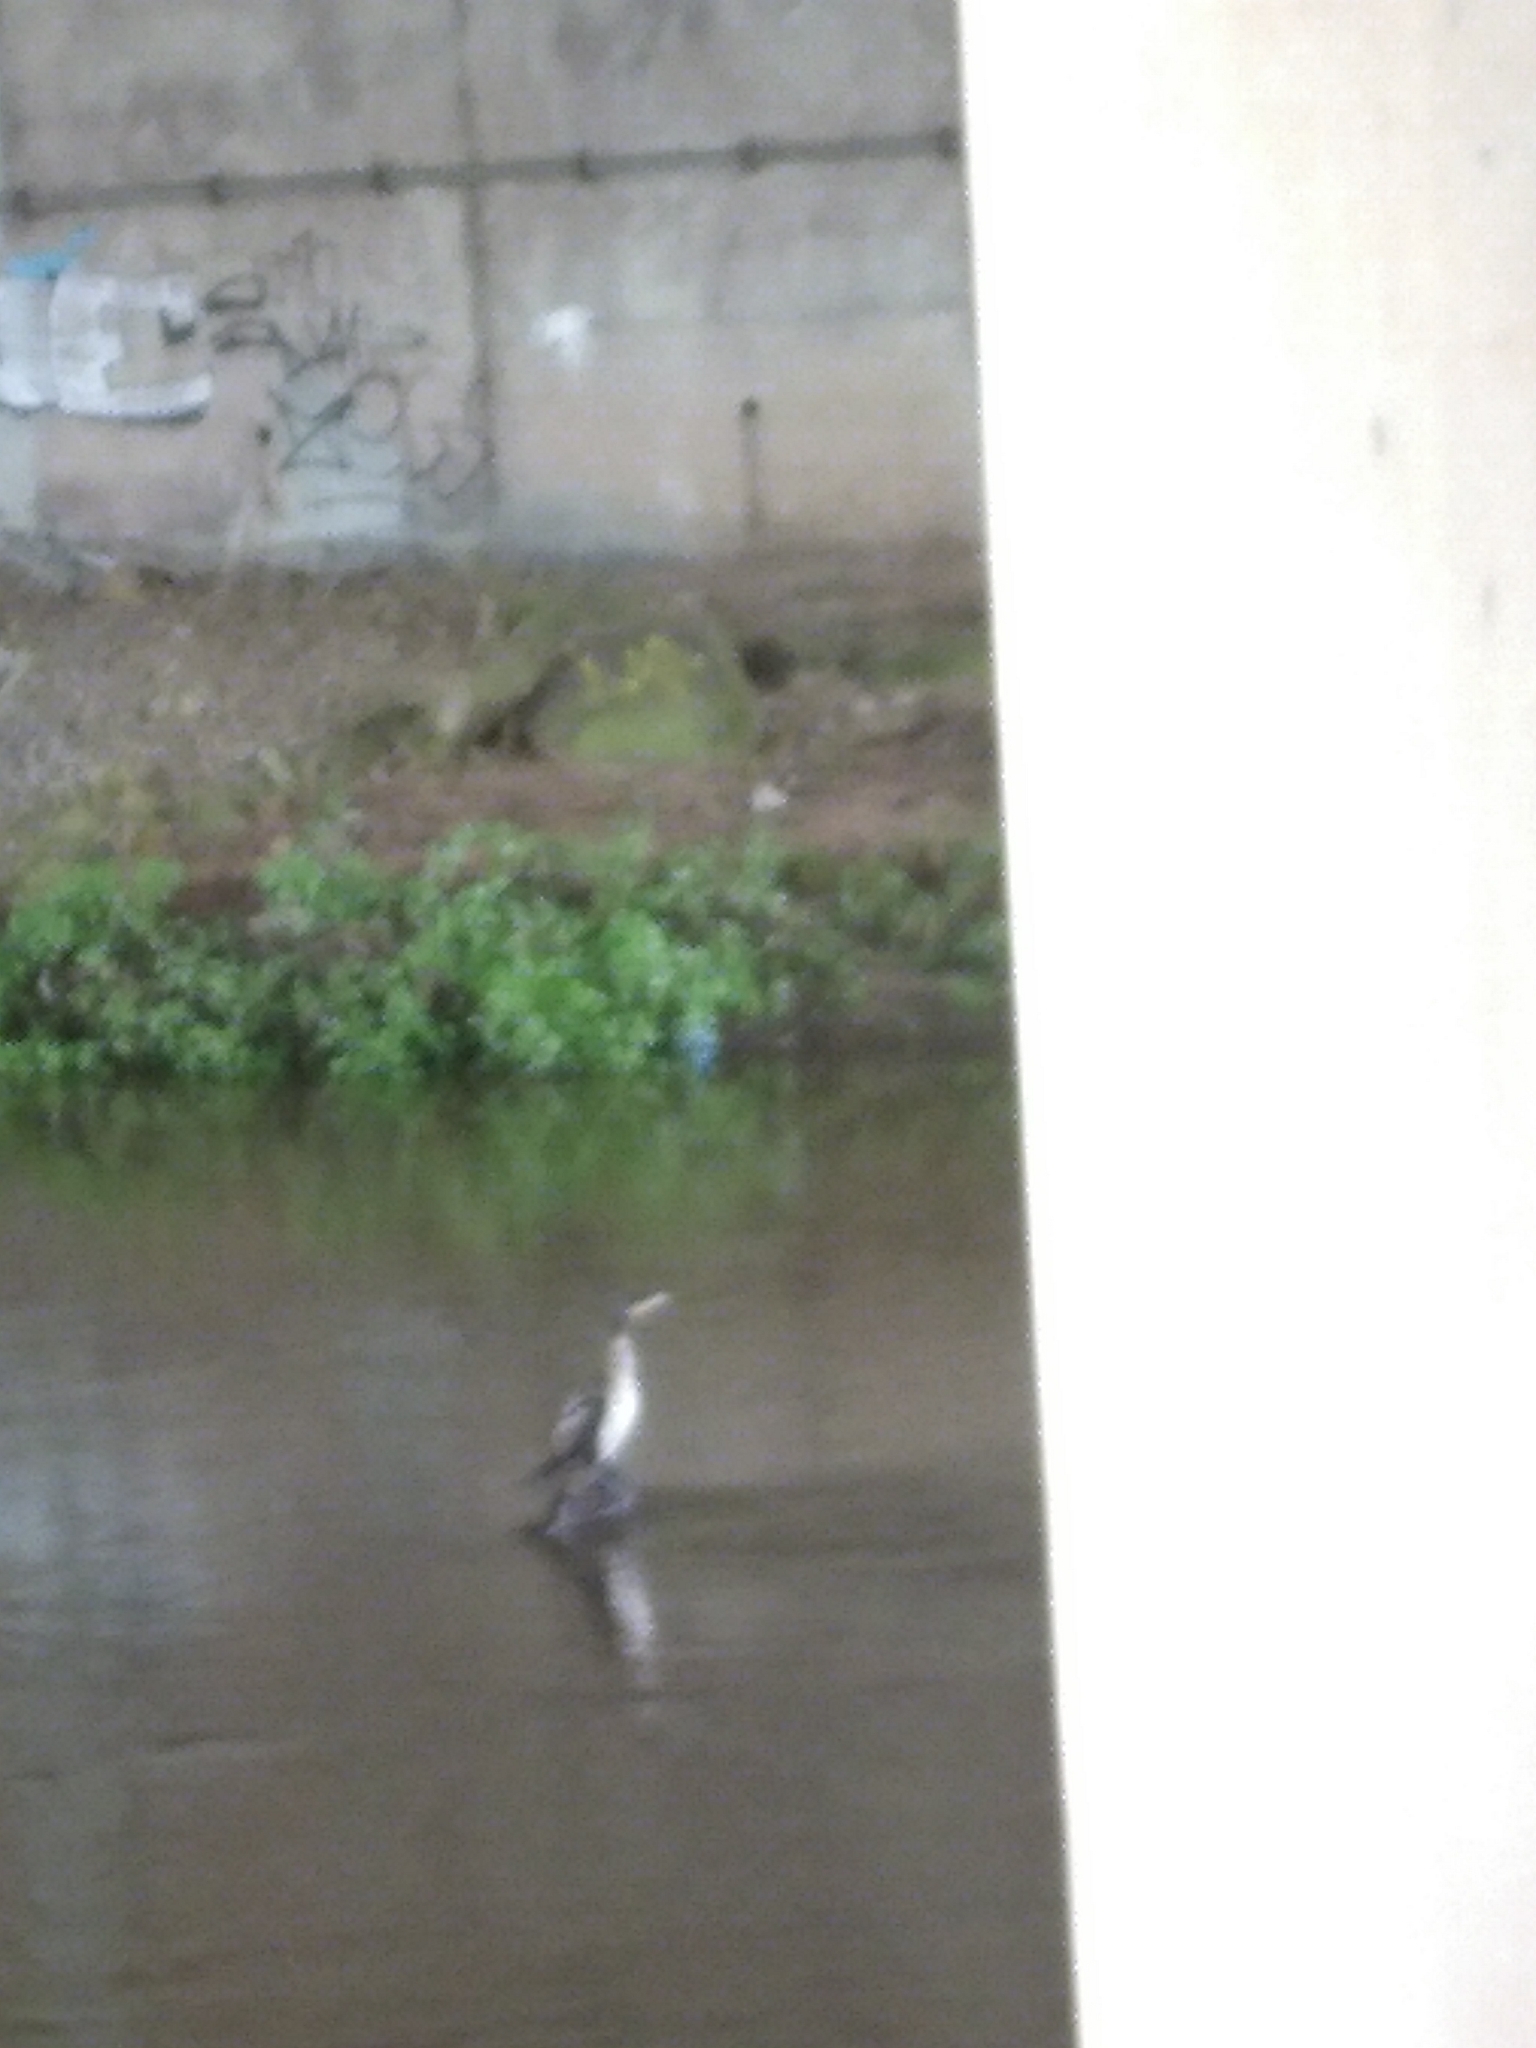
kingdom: Animalia
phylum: Chordata
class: Aves
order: Suliformes
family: Phalacrocoracidae
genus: Phalacrocorax
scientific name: Phalacrocorax carbo
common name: Great cormorant
